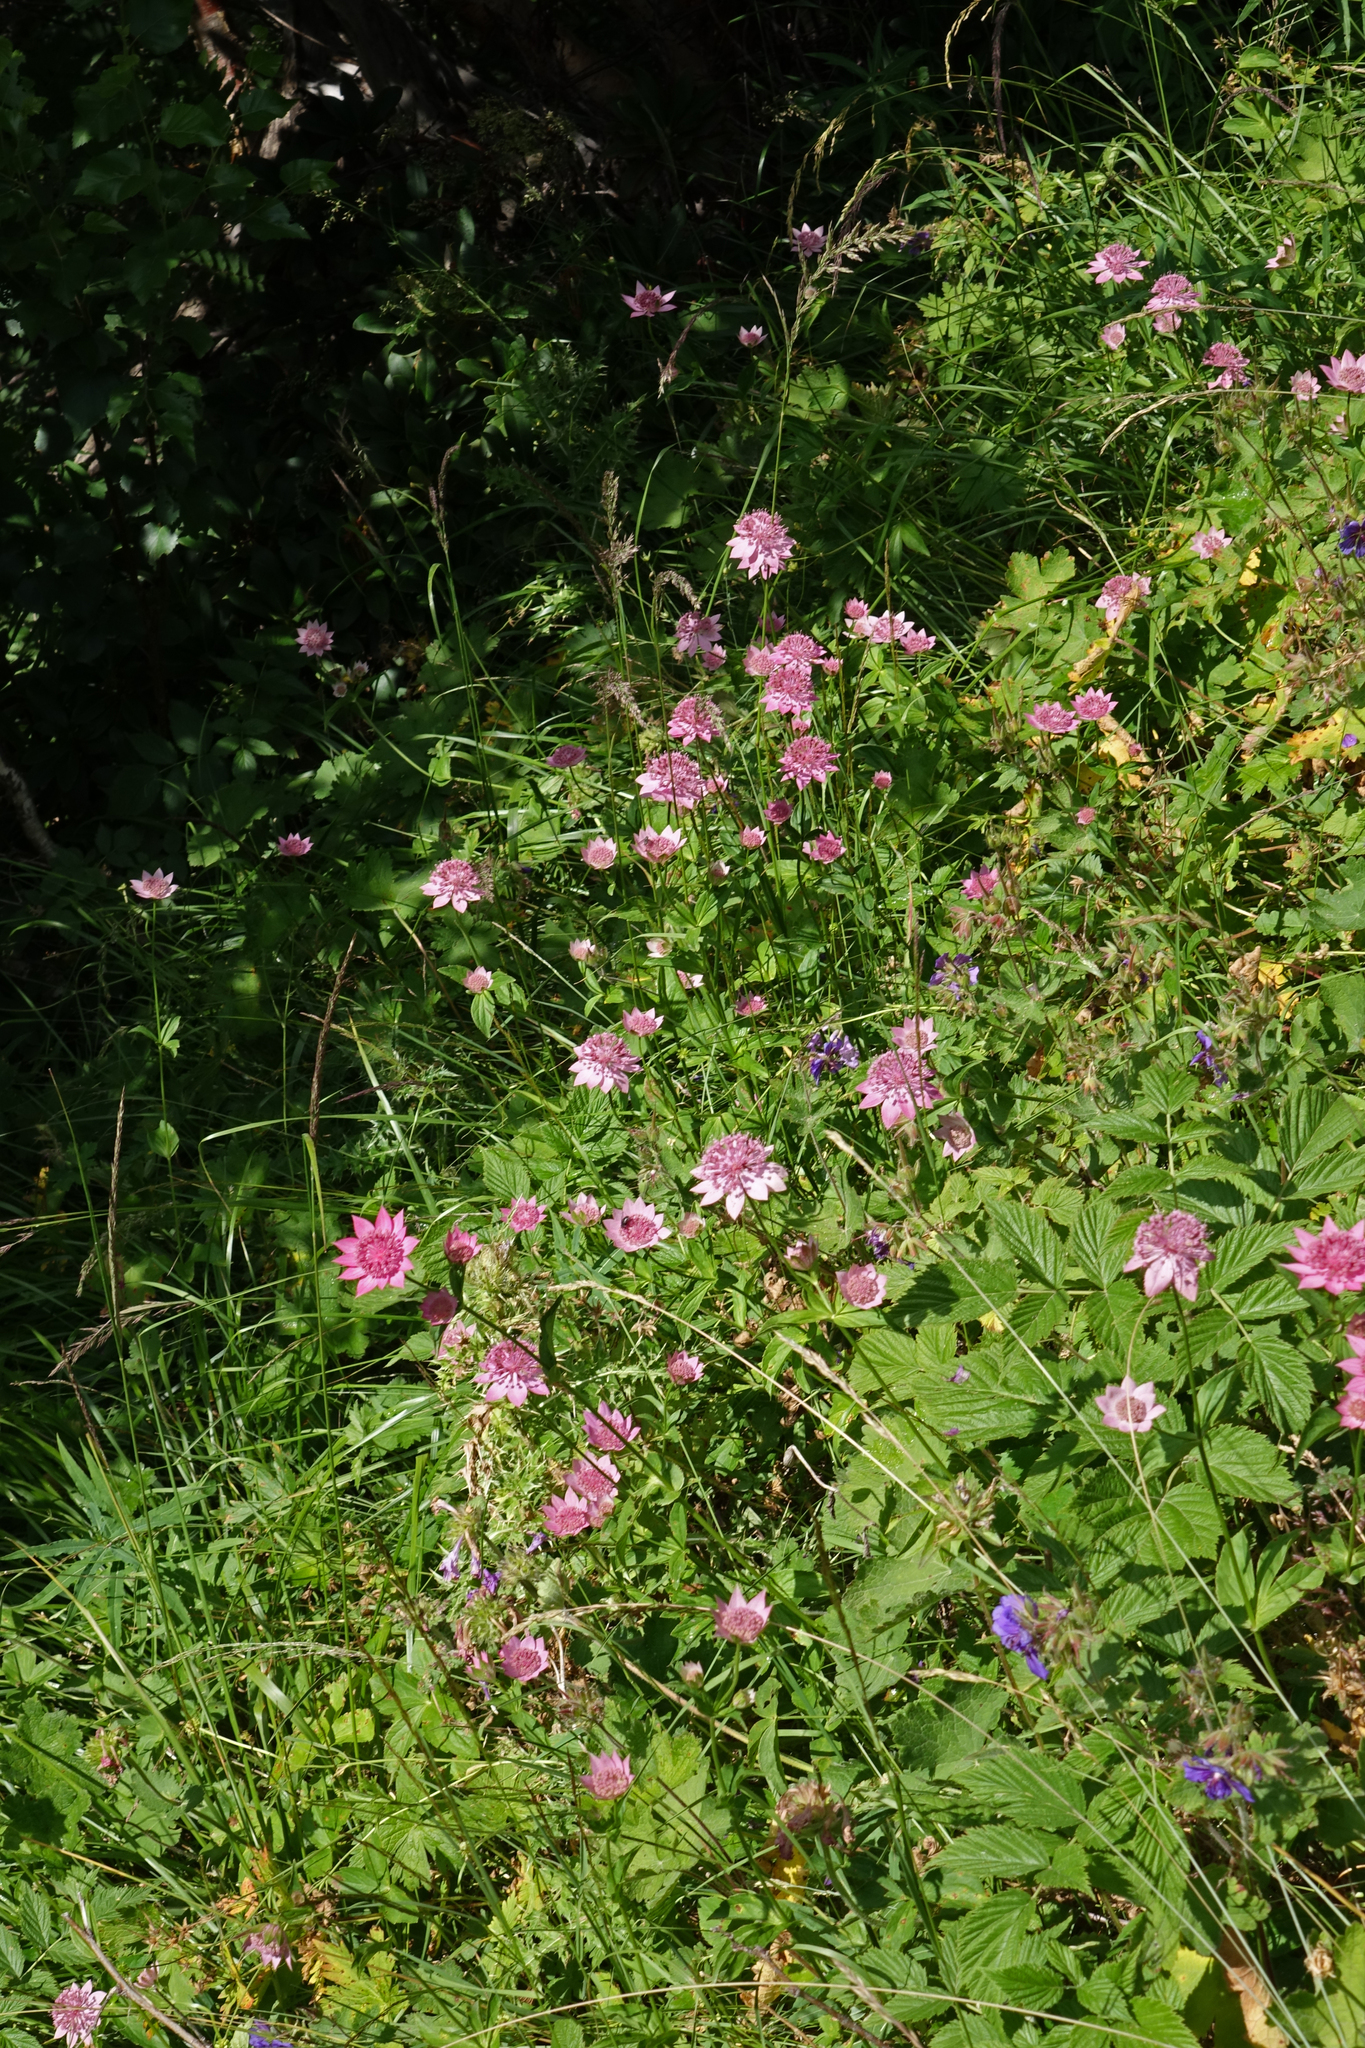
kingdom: Plantae
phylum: Tracheophyta
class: Magnoliopsida
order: Apiales
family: Apiaceae
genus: Astrantia
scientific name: Astrantia maxima
